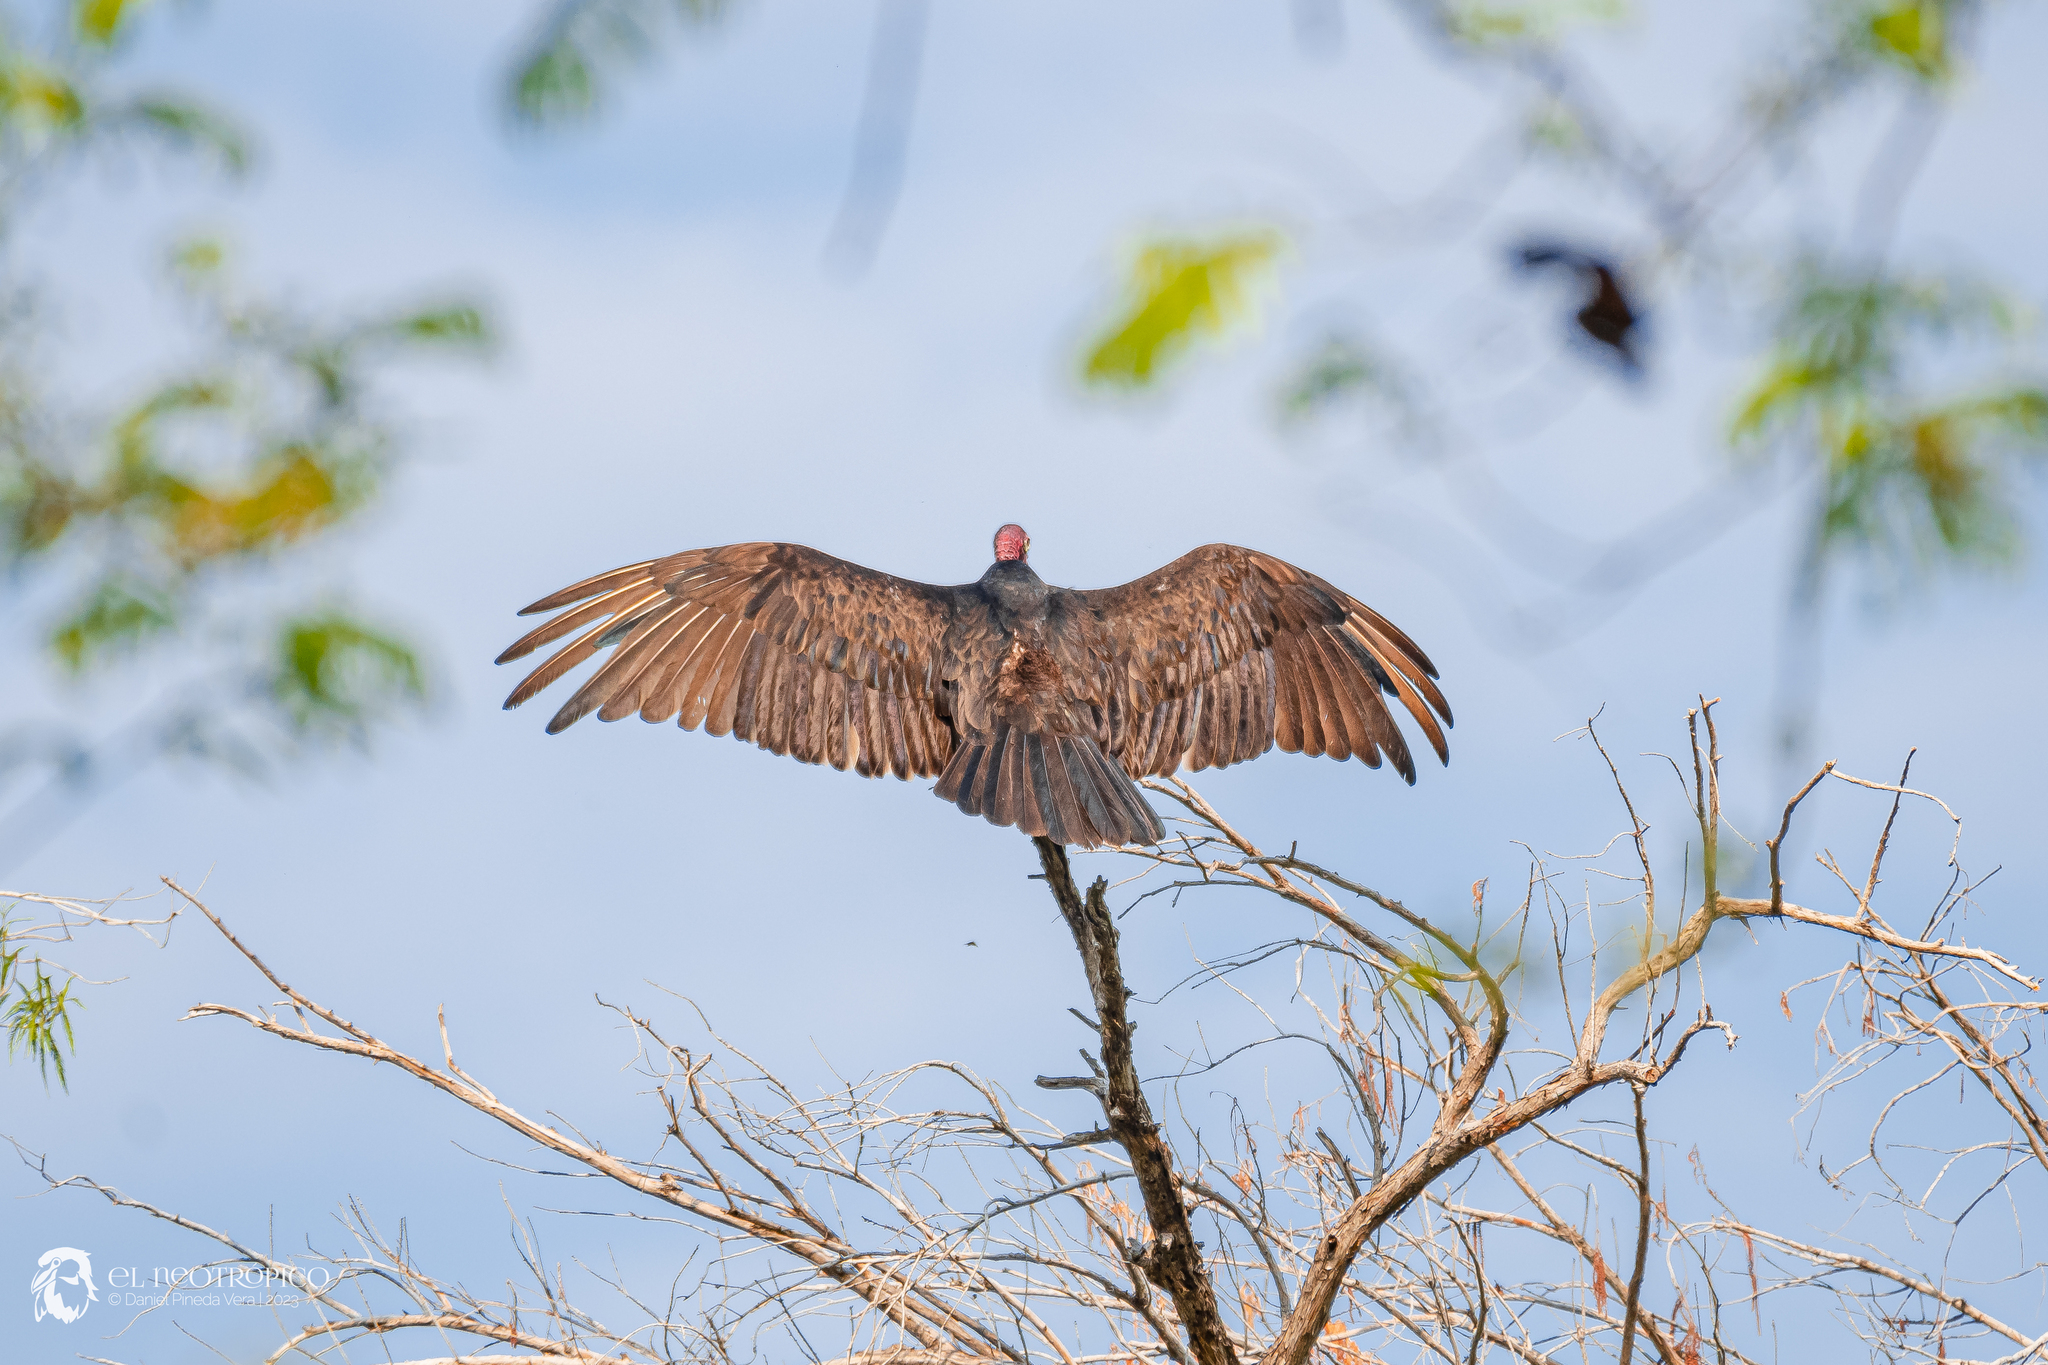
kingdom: Animalia
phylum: Chordata
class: Aves
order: Accipitriformes
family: Cathartidae
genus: Cathartes
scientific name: Cathartes aura
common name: Turkey vulture
